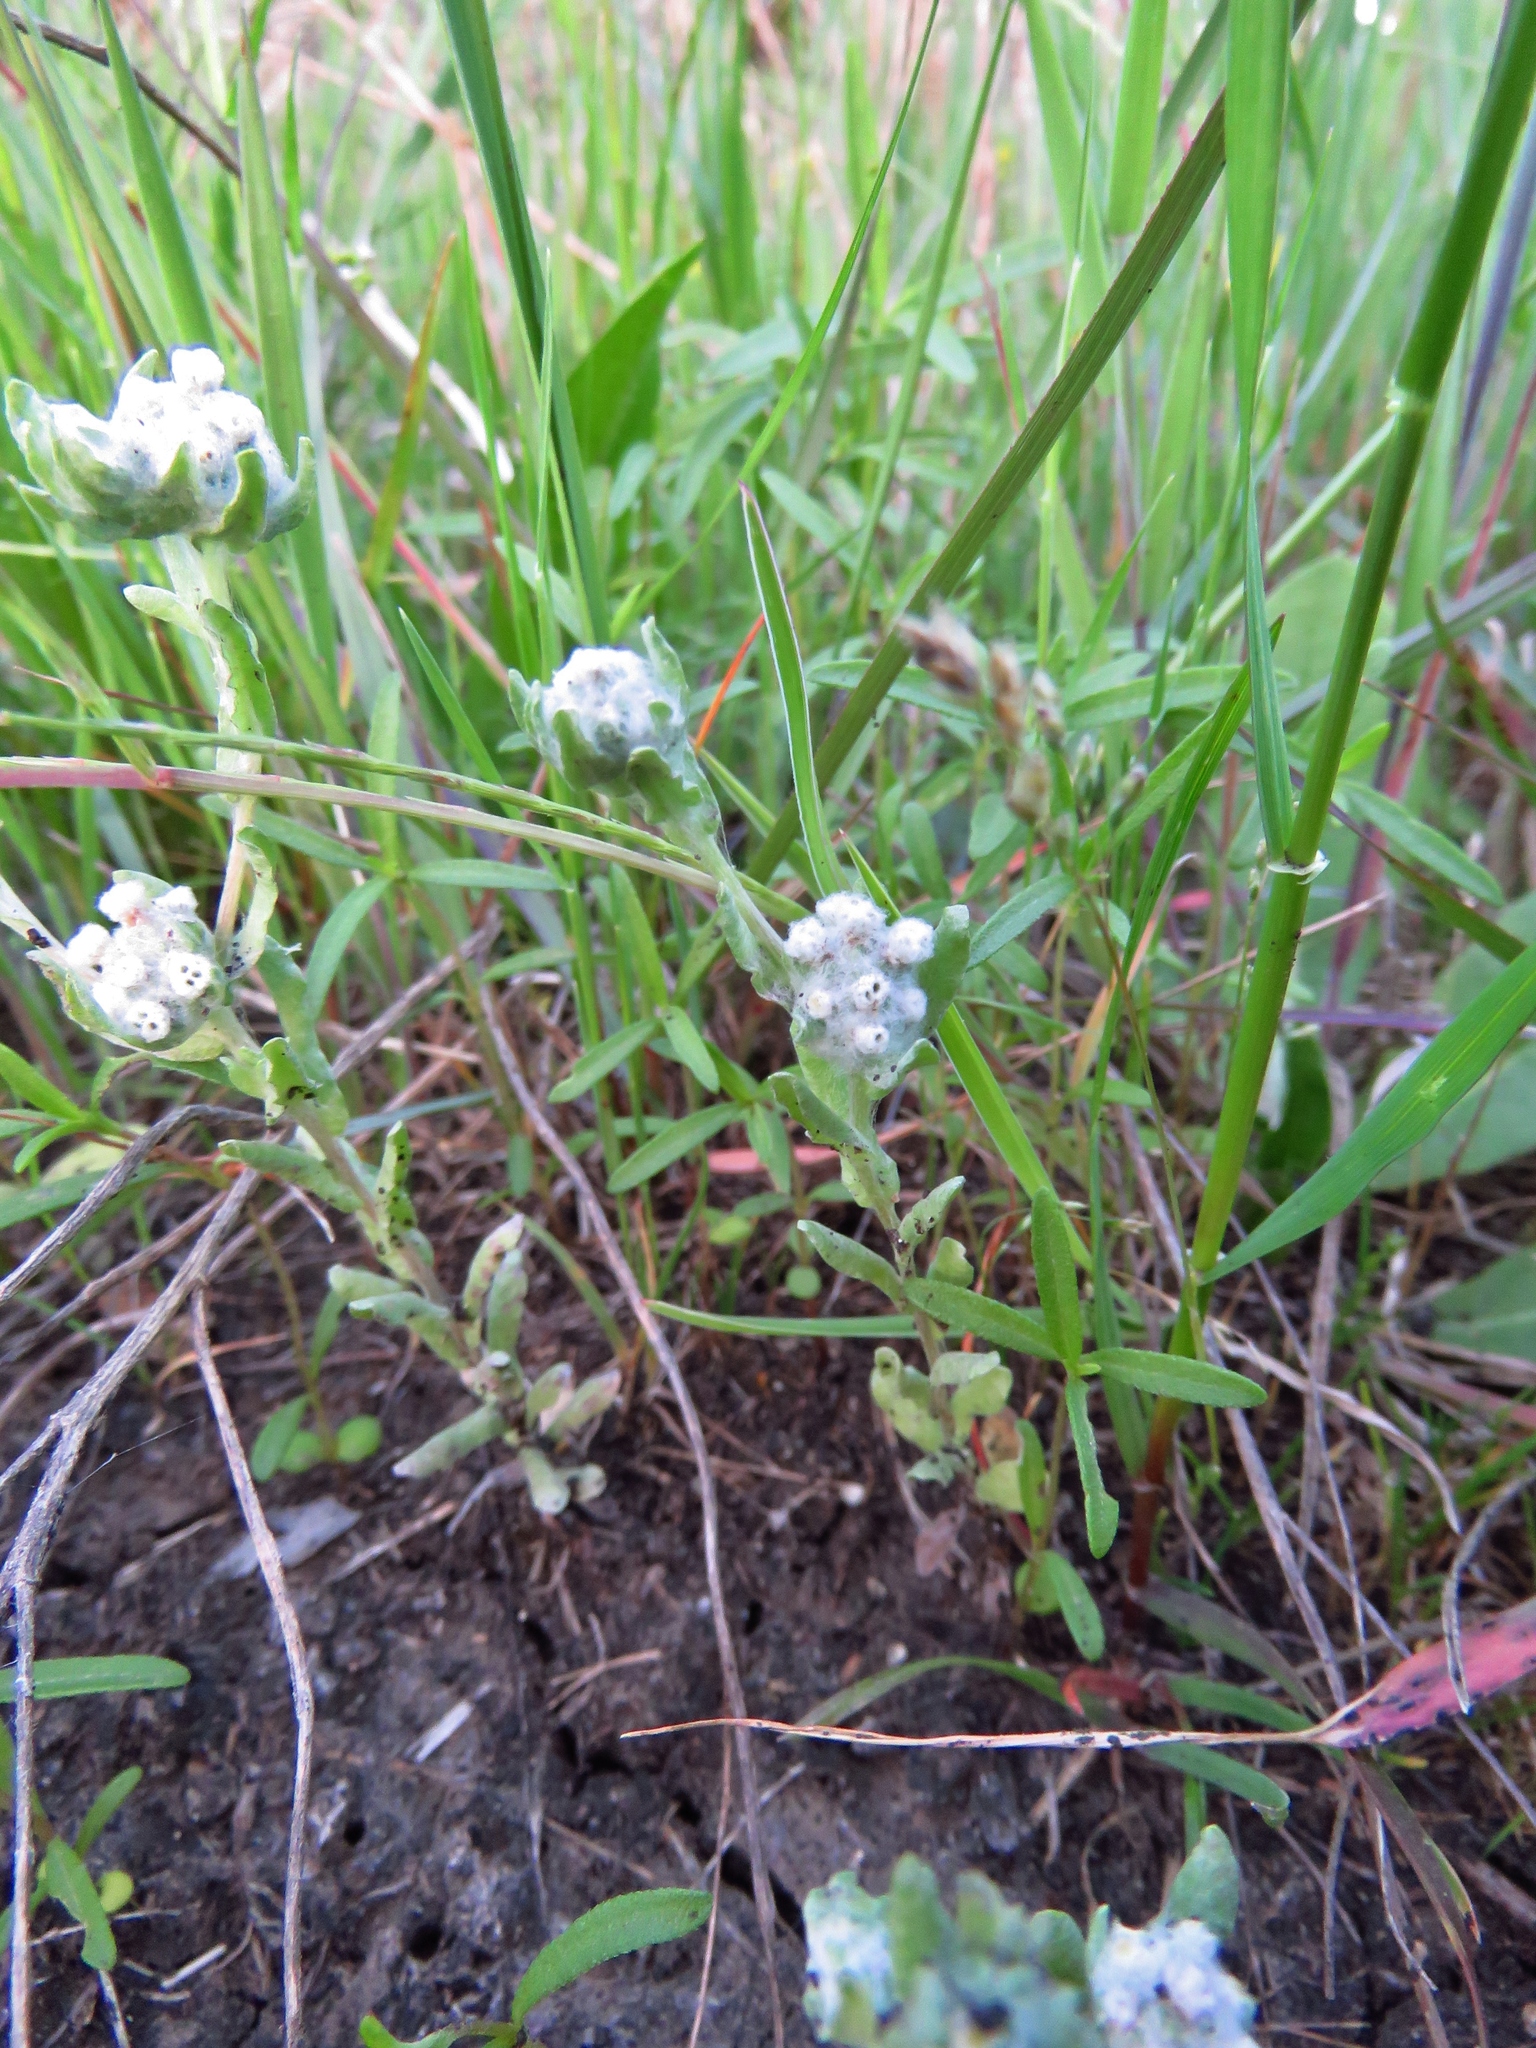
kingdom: Plantae
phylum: Tracheophyta
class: Magnoliopsida
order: Asterales
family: Asteraceae
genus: Diaperia
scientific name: Diaperia verna
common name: Many-stem rabbit-tobacco
